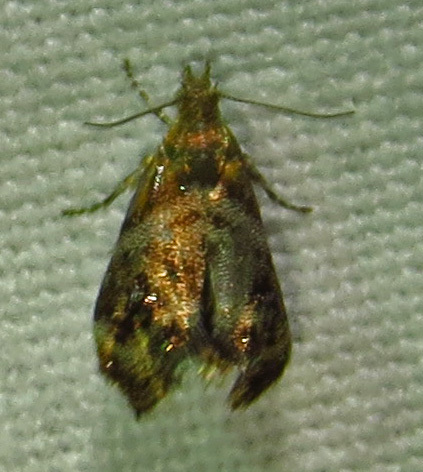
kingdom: Animalia
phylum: Arthropoda
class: Insecta
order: Lepidoptera
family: Choreutidae
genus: Tebenna
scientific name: Tebenna gnaphaliella
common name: Everlasting tebenna moth
